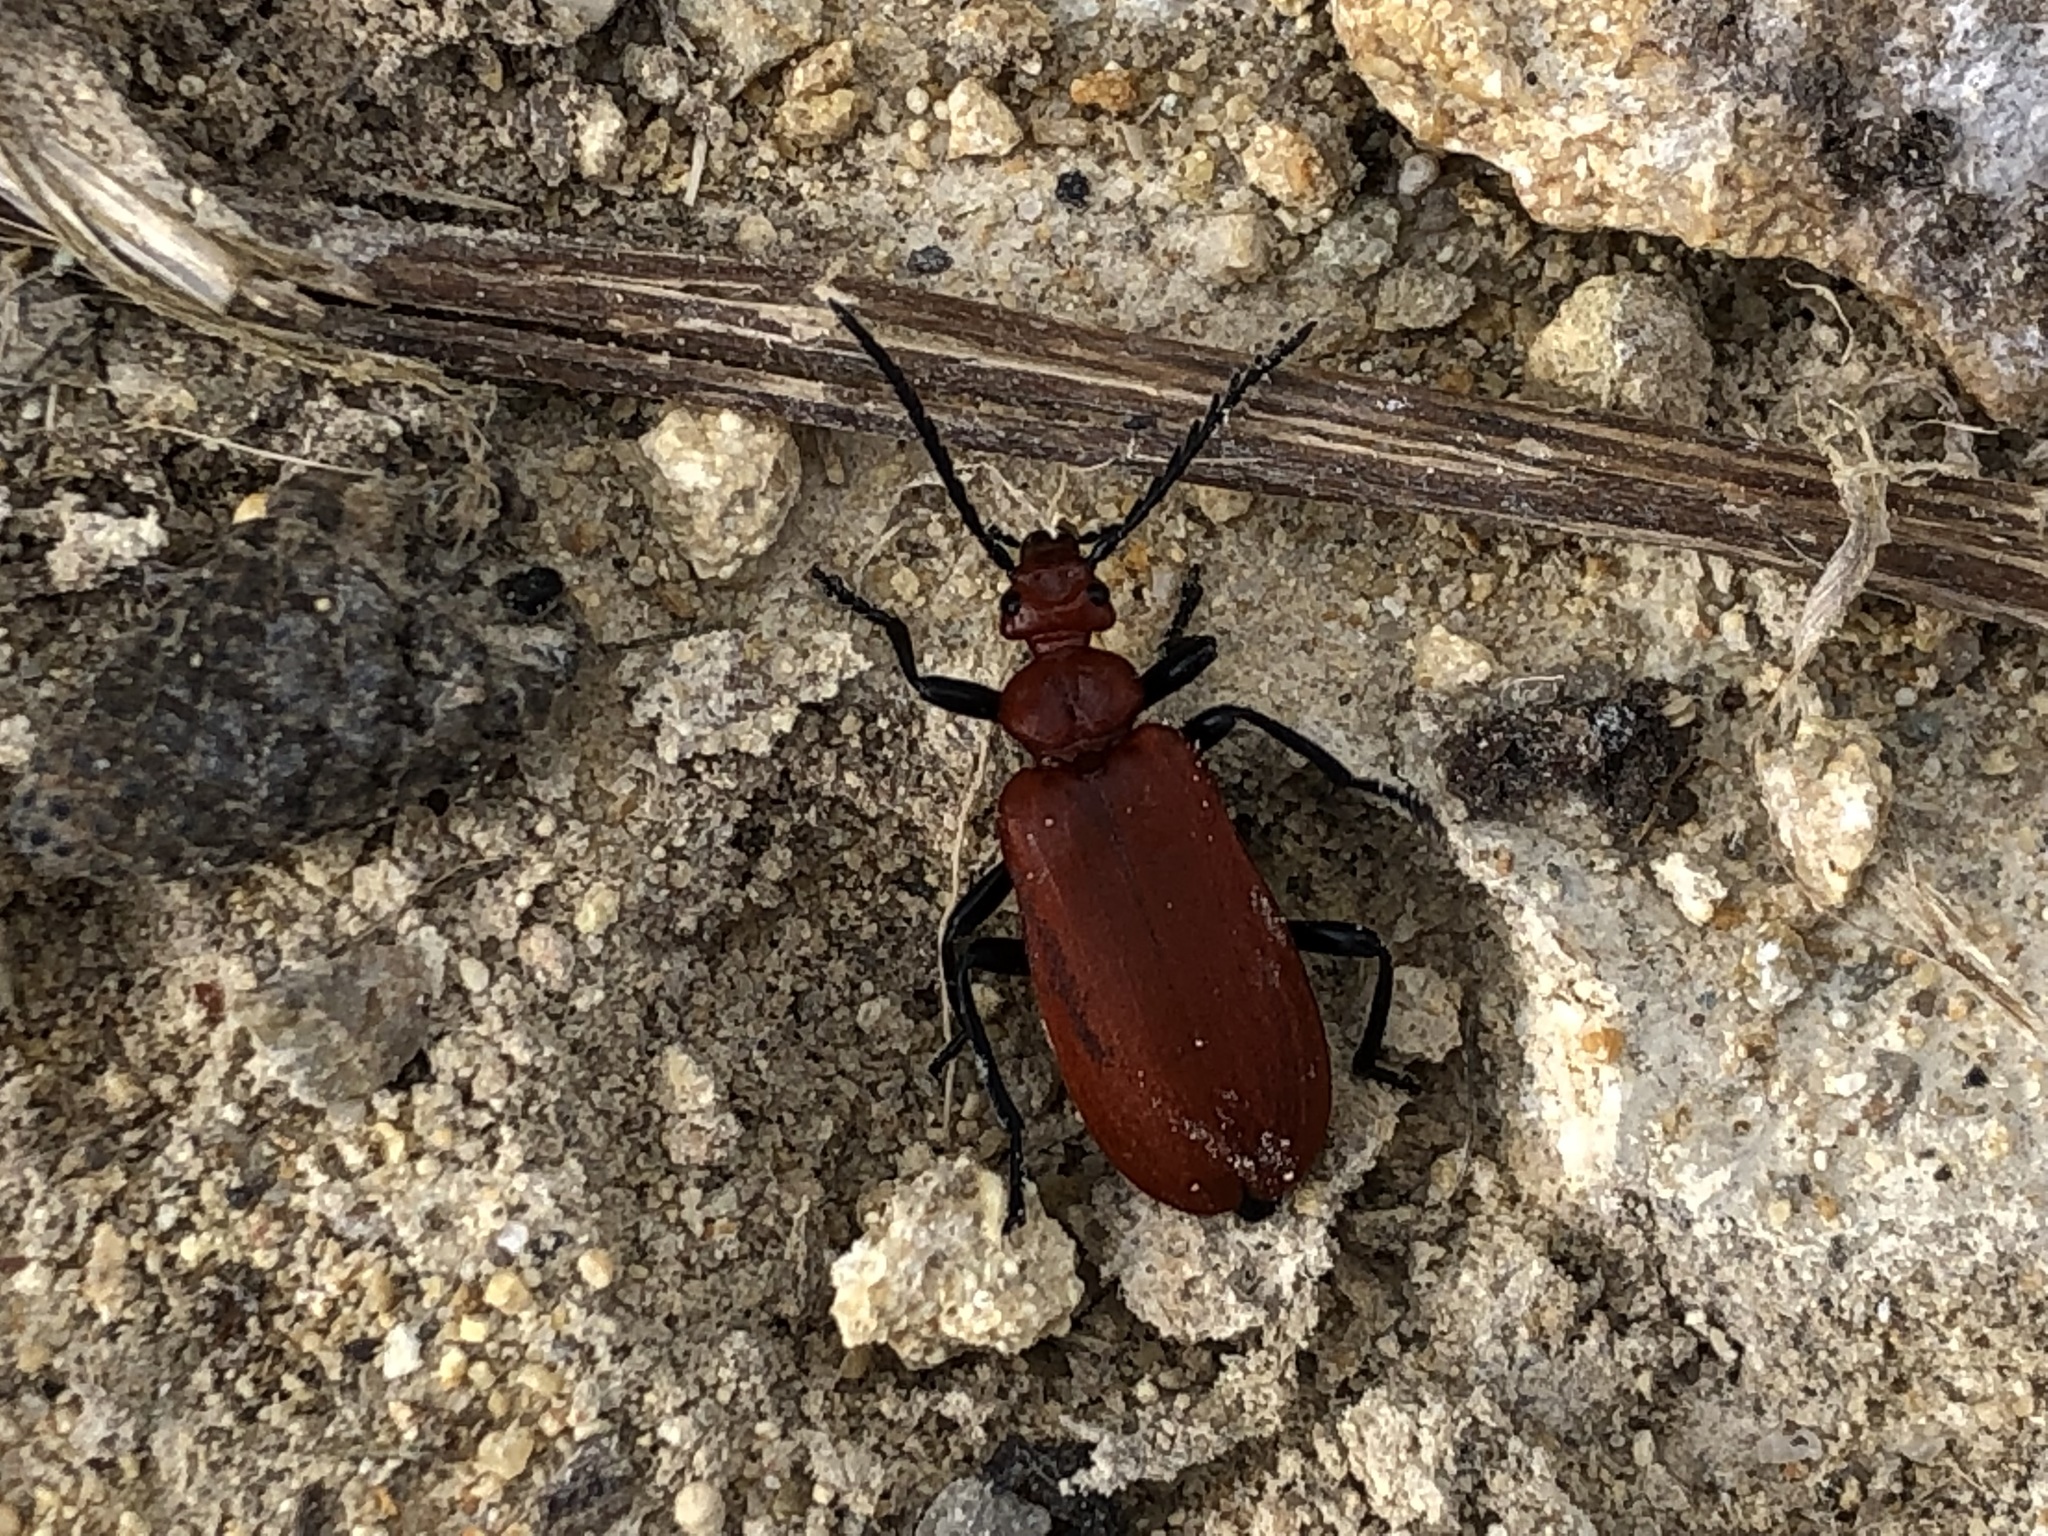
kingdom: Animalia
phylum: Arthropoda
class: Insecta
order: Coleoptera
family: Pyrochroidae
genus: Pyrochroa
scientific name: Pyrochroa serraticornis
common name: Red-headed cardinal beetle
